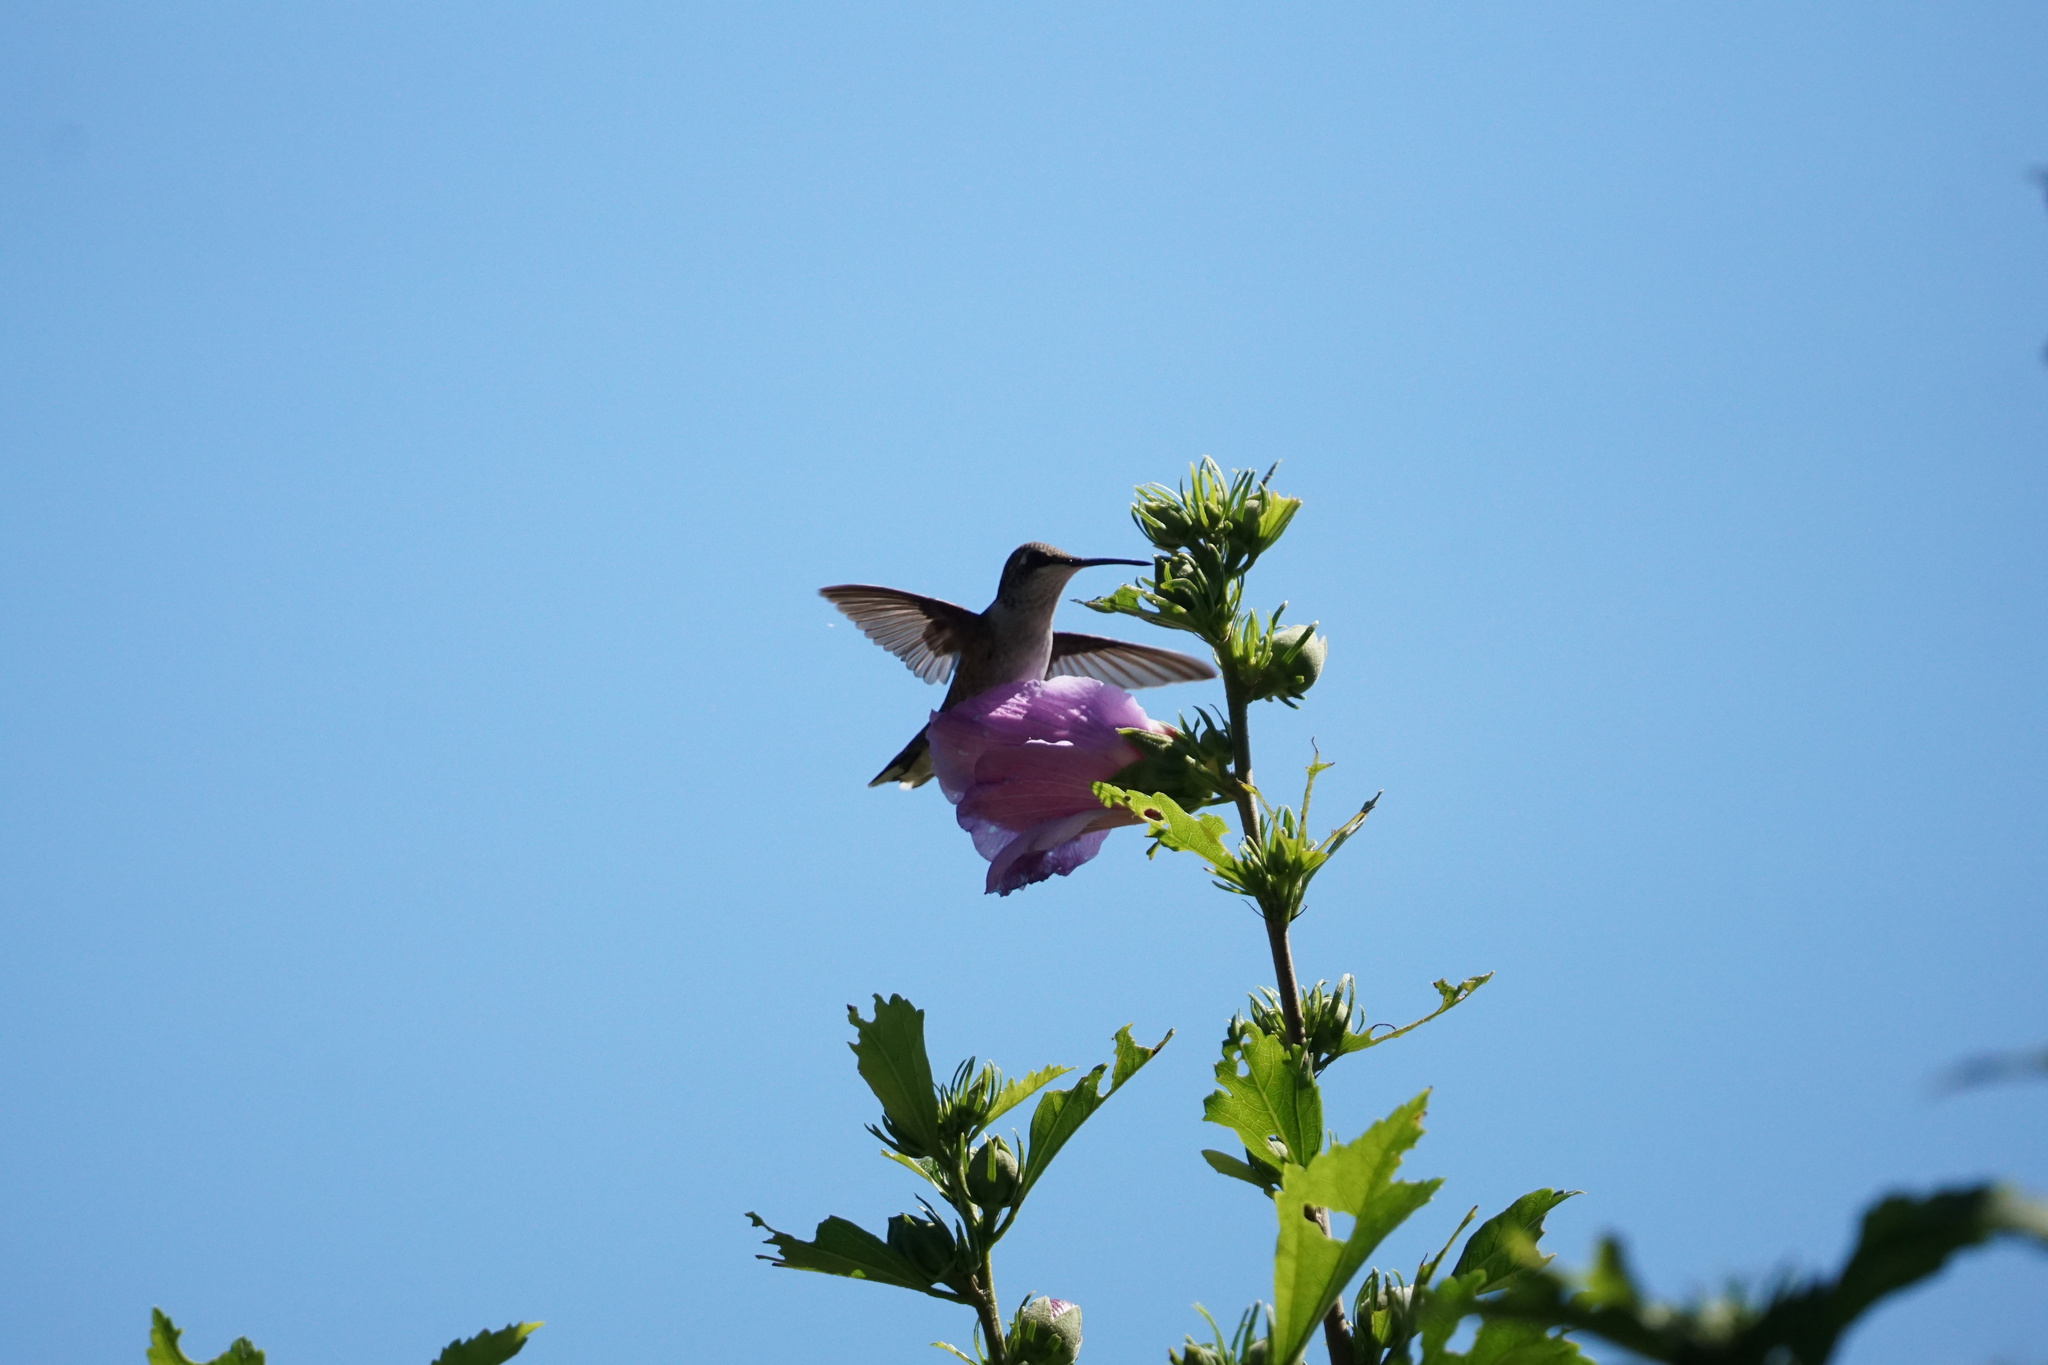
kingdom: Animalia
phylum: Chordata
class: Aves
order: Apodiformes
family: Trochilidae
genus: Archilochus
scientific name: Archilochus colubris
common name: Ruby-throated hummingbird
